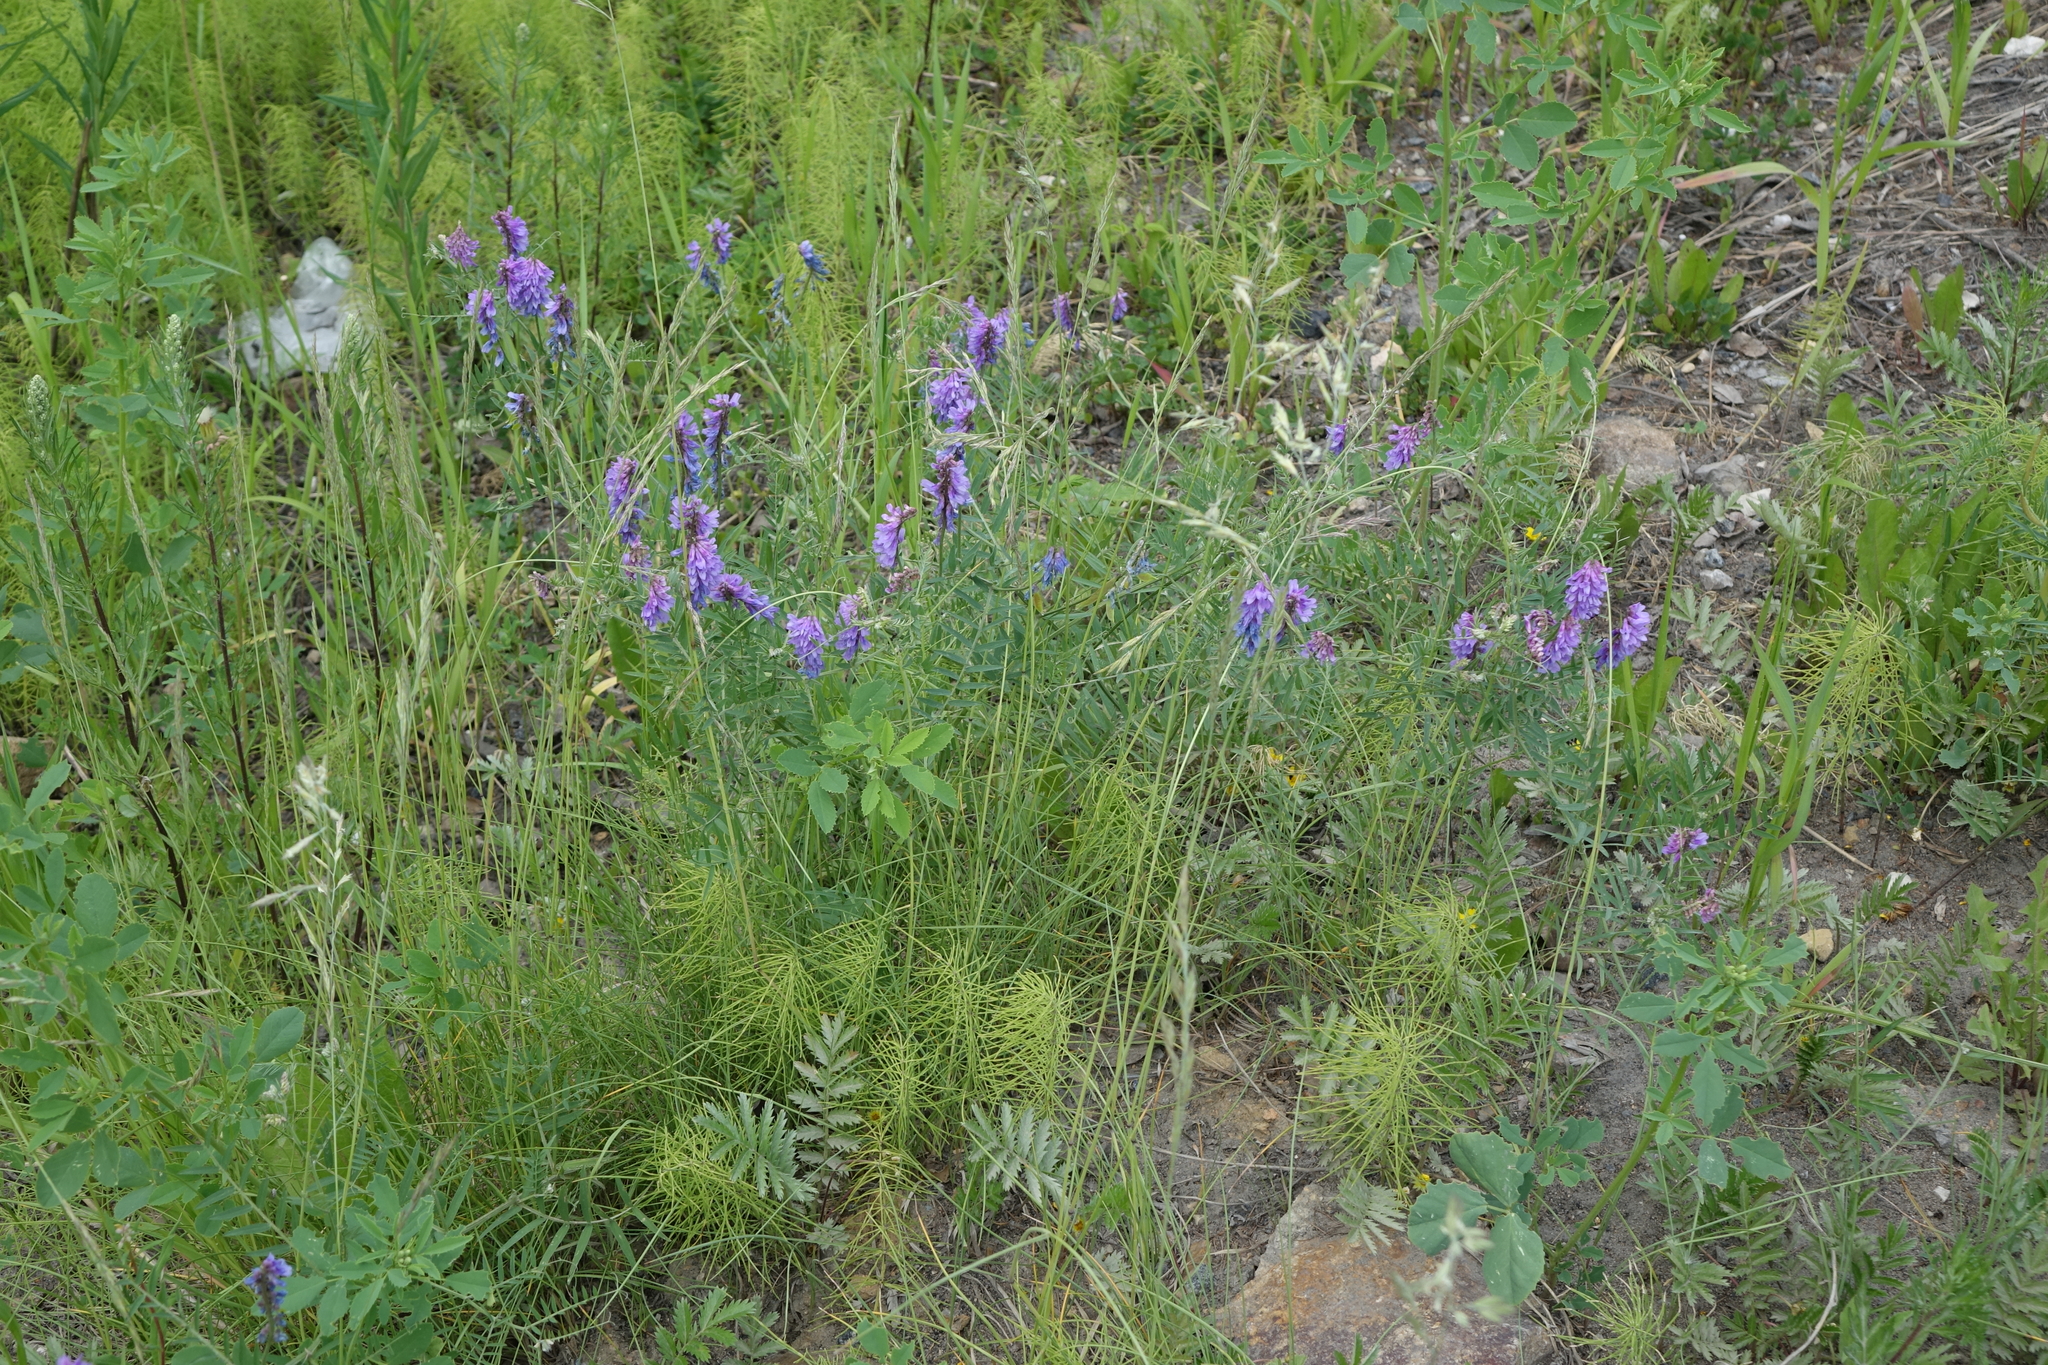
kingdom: Plantae
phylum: Tracheophyta
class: Magnoliopsida
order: Fabales
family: Fabaceae
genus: Vicia
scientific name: Vicia cracca
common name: Bird vetch
